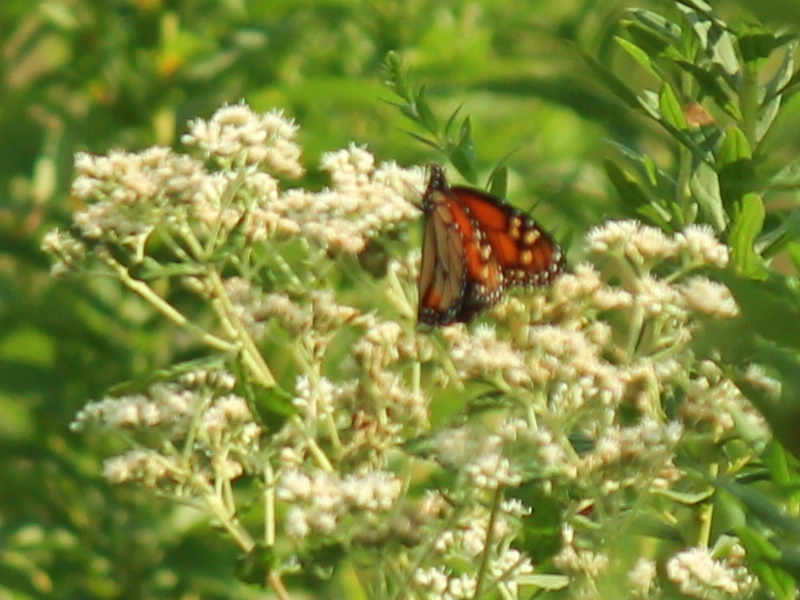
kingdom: Animalia
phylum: Arthropoda
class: Insecta
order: Lepidoptera
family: Nymphalidae
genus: Danaus
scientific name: Danaus plexippus
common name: Monarch
